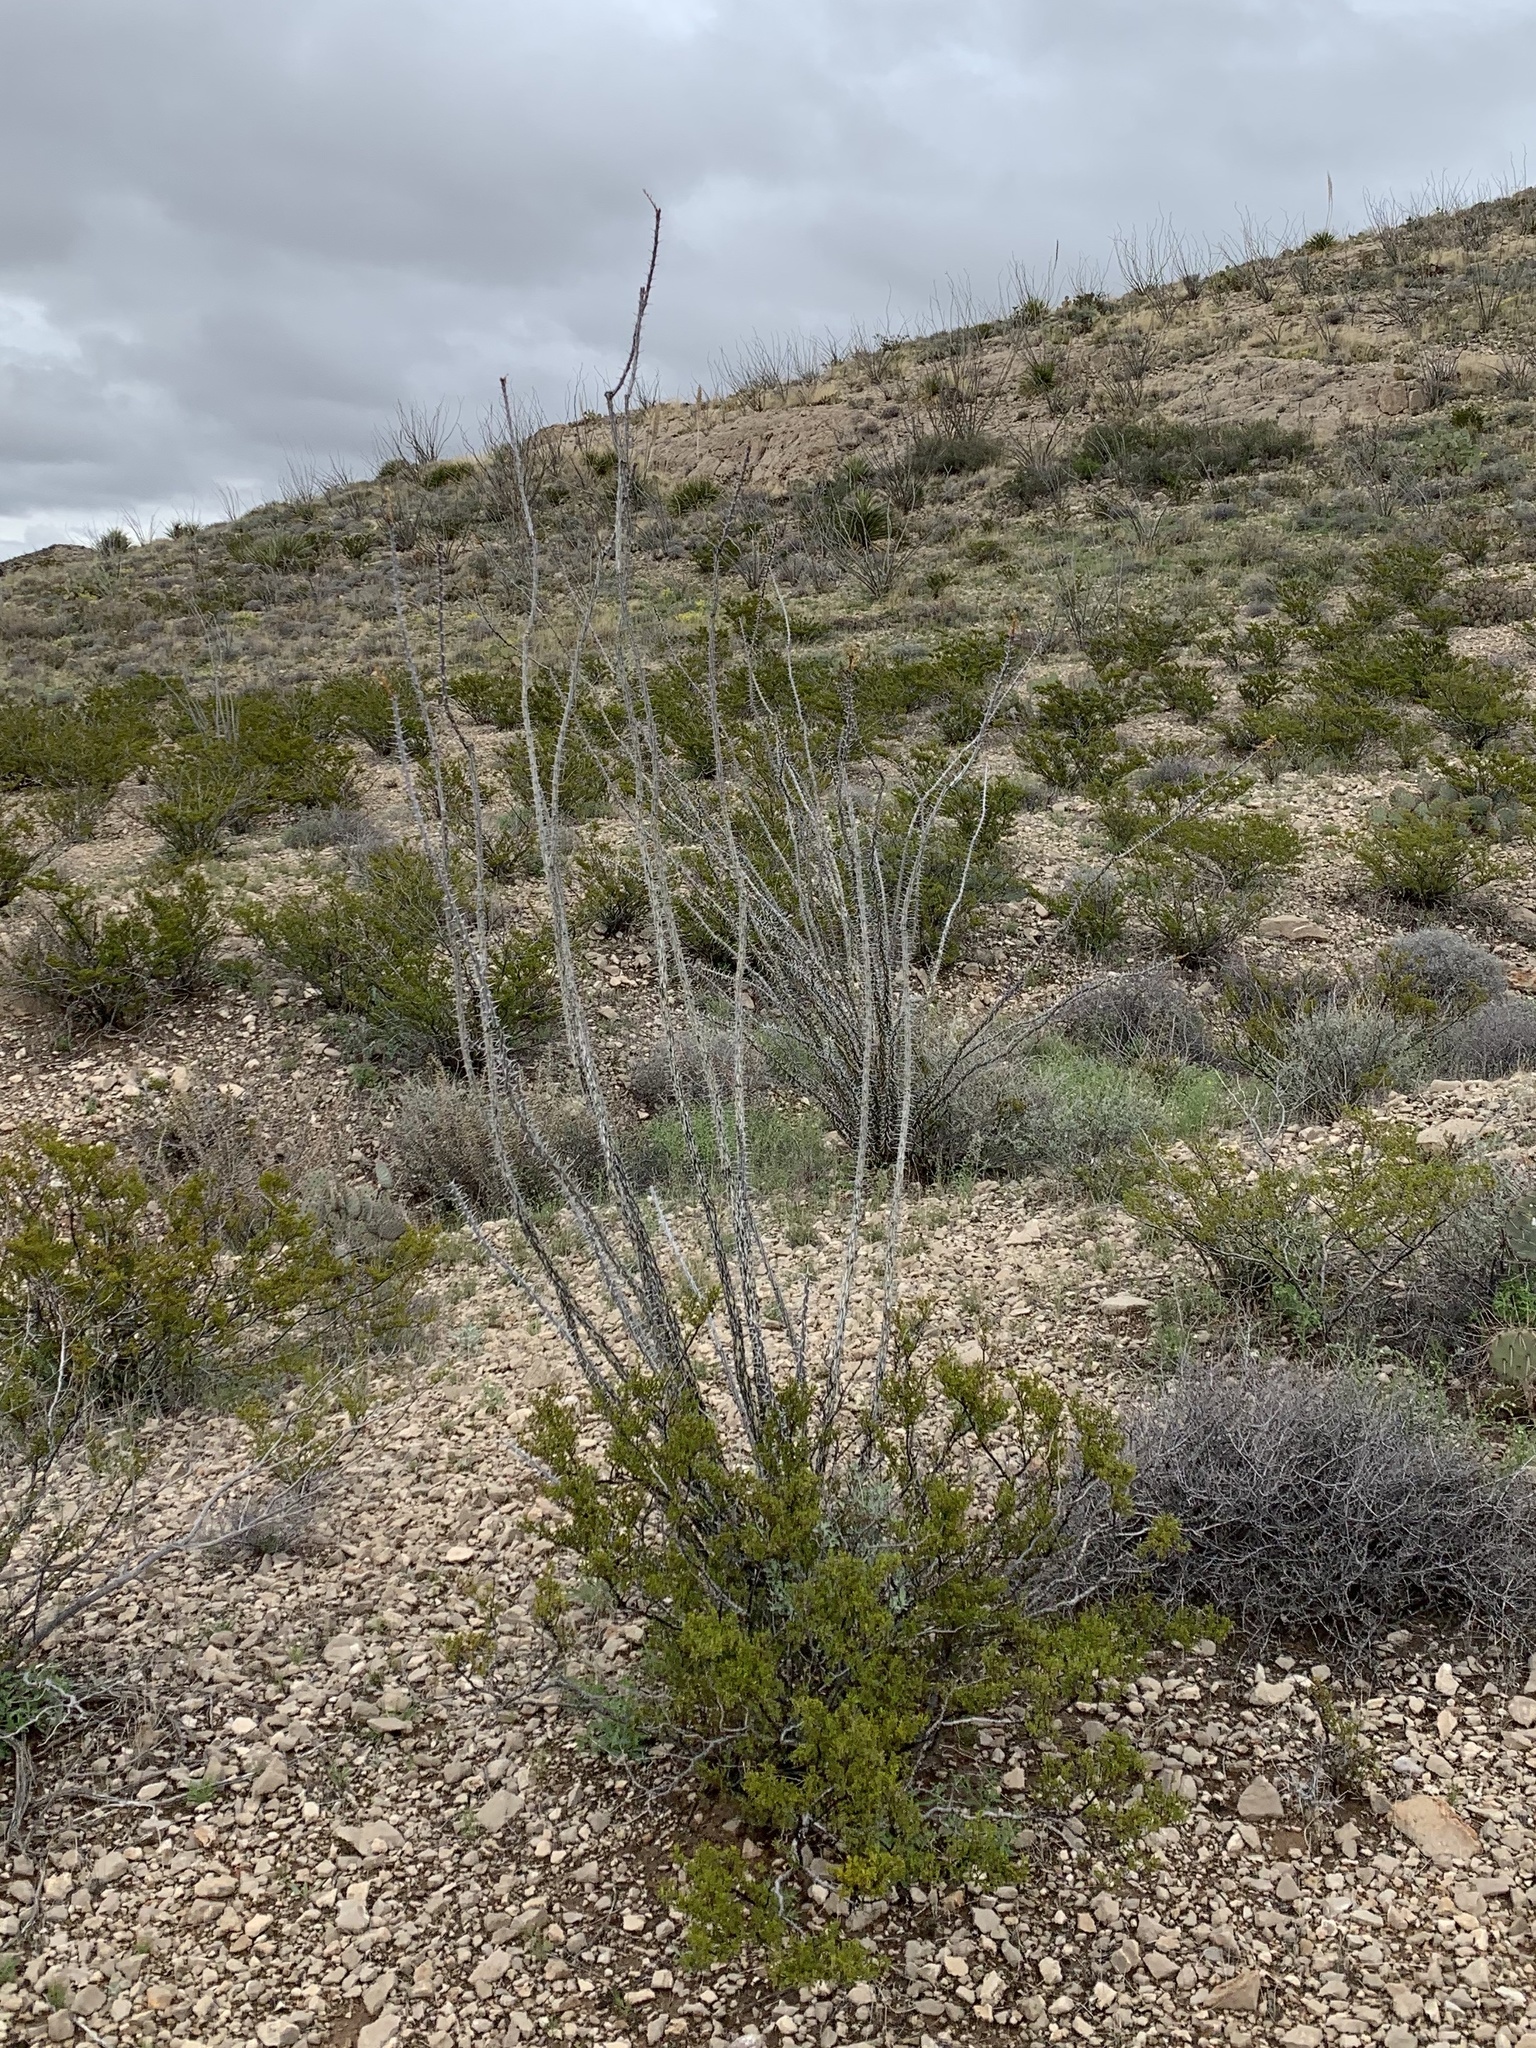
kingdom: Plantae
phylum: Tracheophyta
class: Magnoliopsida
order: Ericales
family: Fouquieriaceae
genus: Fouquieria
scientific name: Fouquieria splendens
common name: Vine-cactus
